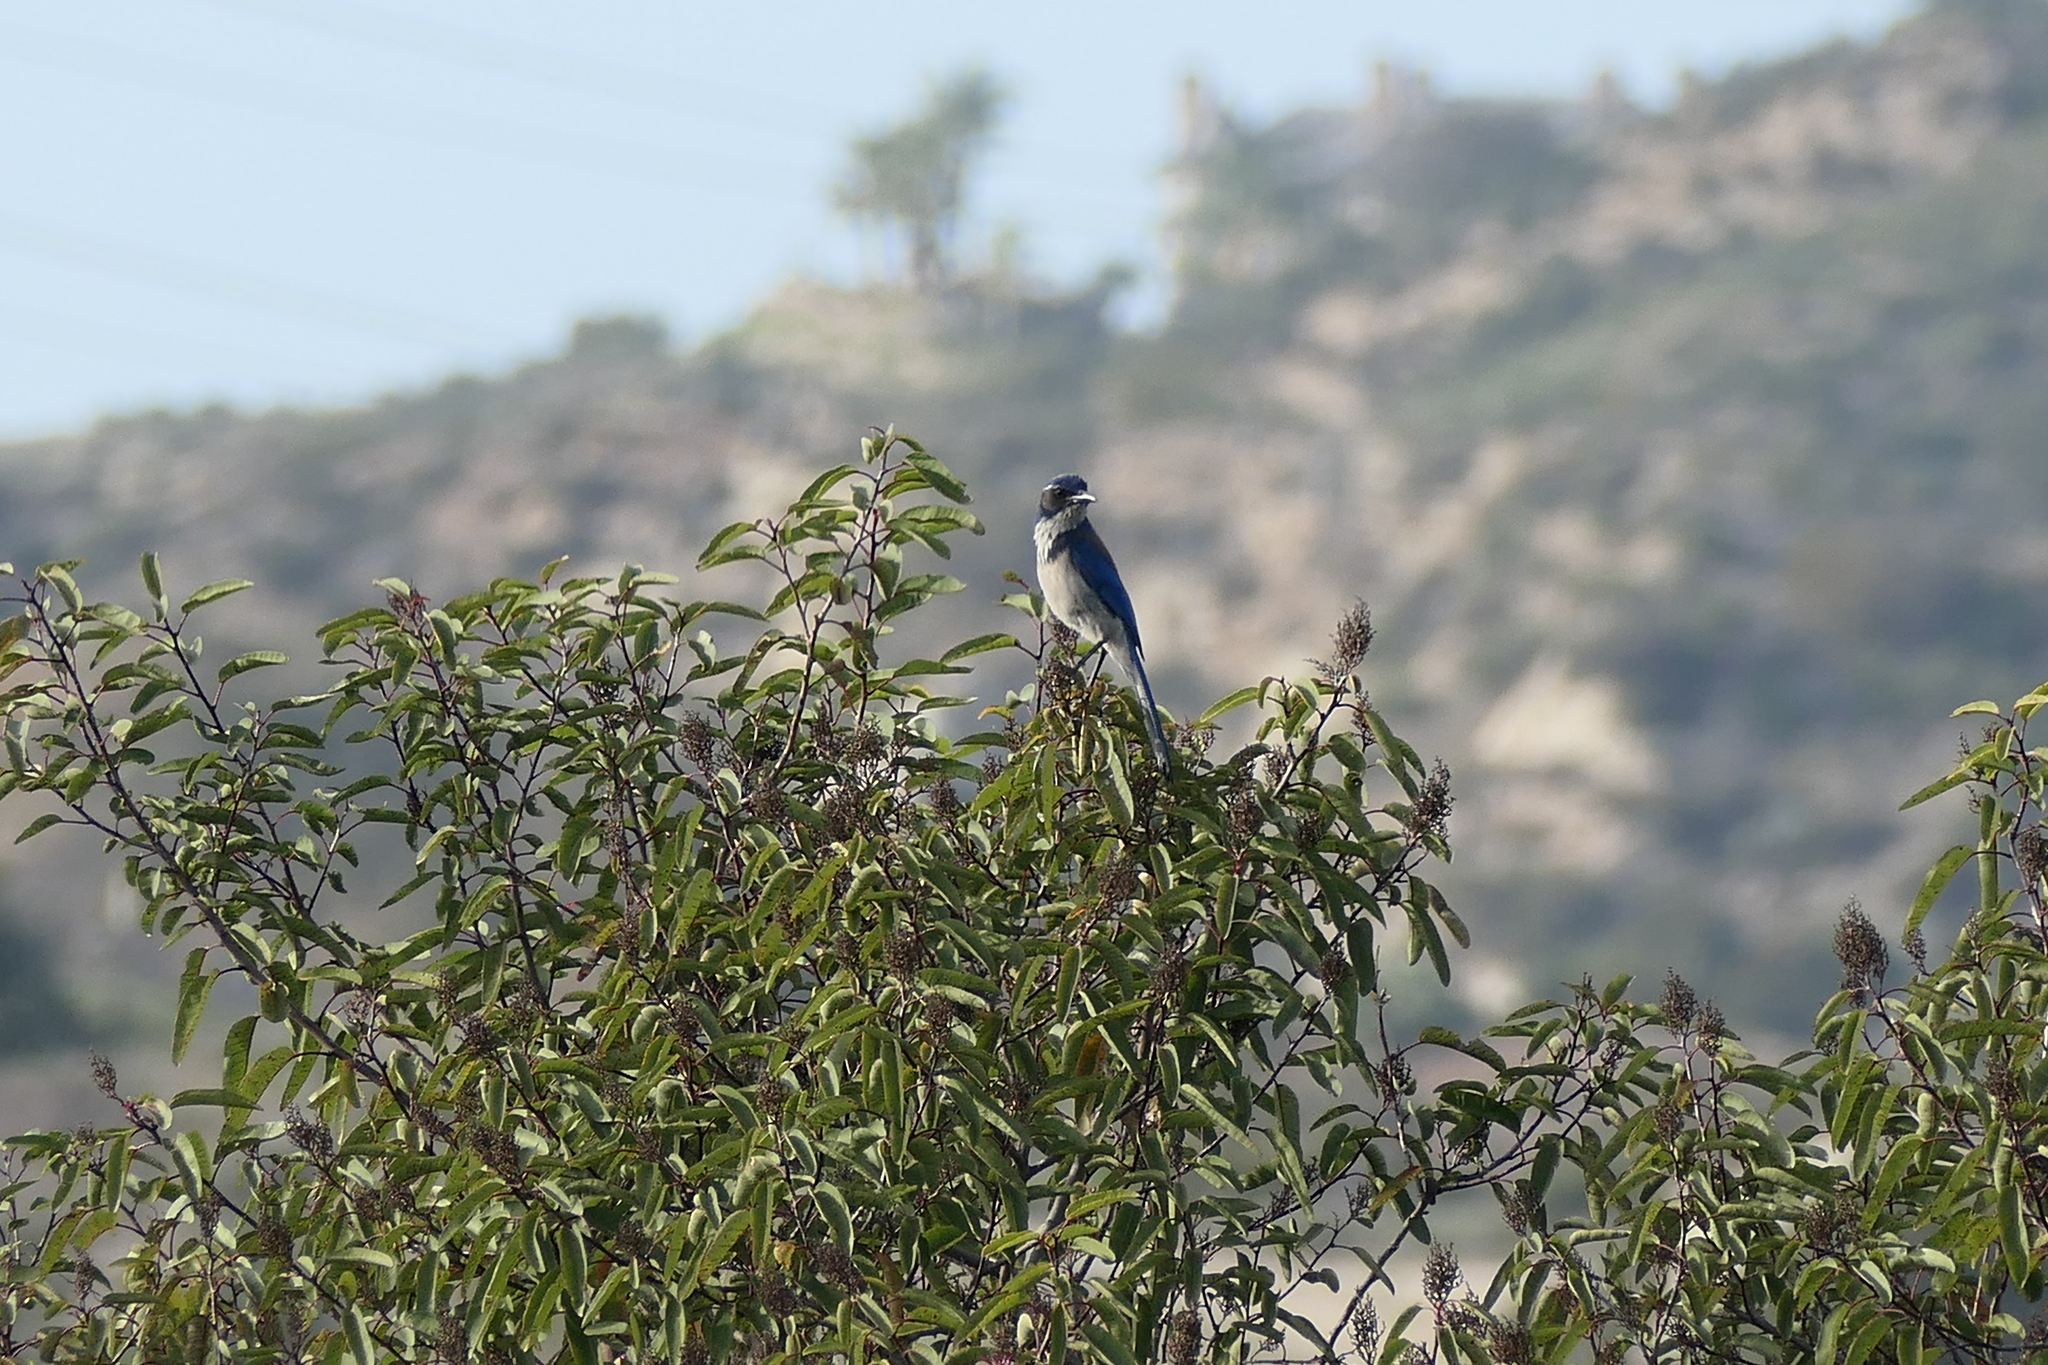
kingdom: Animalia
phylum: Chordata
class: Aves
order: Passeriformes
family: Corvidae
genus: Aphelocoma
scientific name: Aphelocoma californica
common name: California scrub-jay
